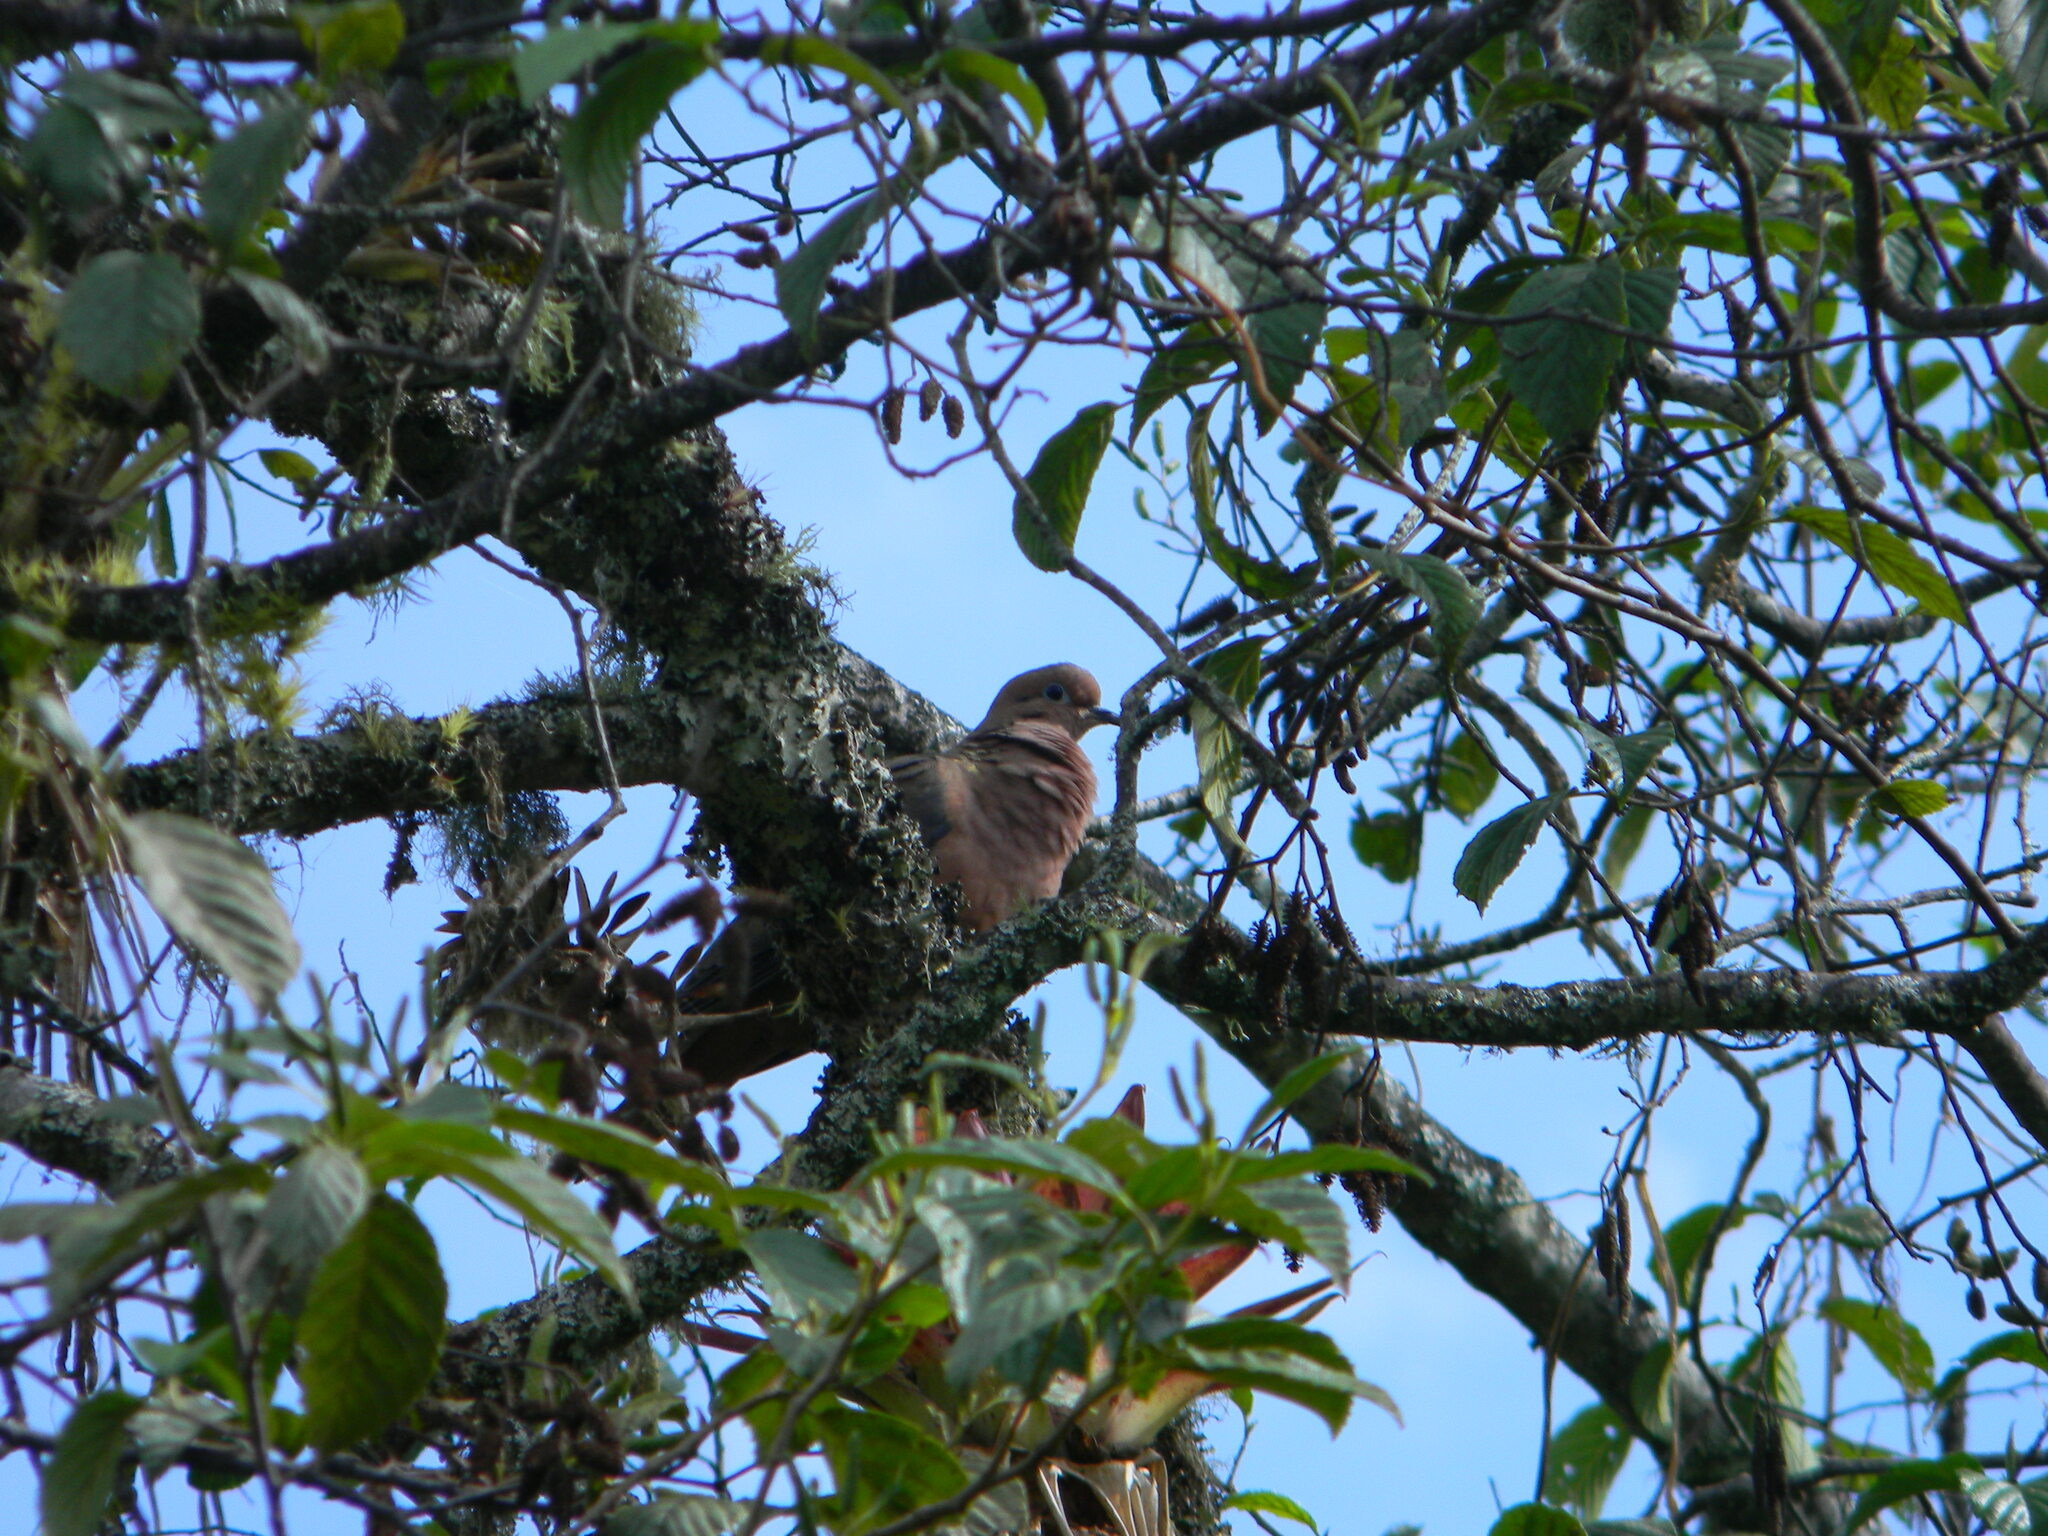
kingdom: Animalia
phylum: Chordata
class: Aves
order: Columbiformes
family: Columbidae
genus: Zenaida
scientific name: Zenaida auriculata
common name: Eared dove
